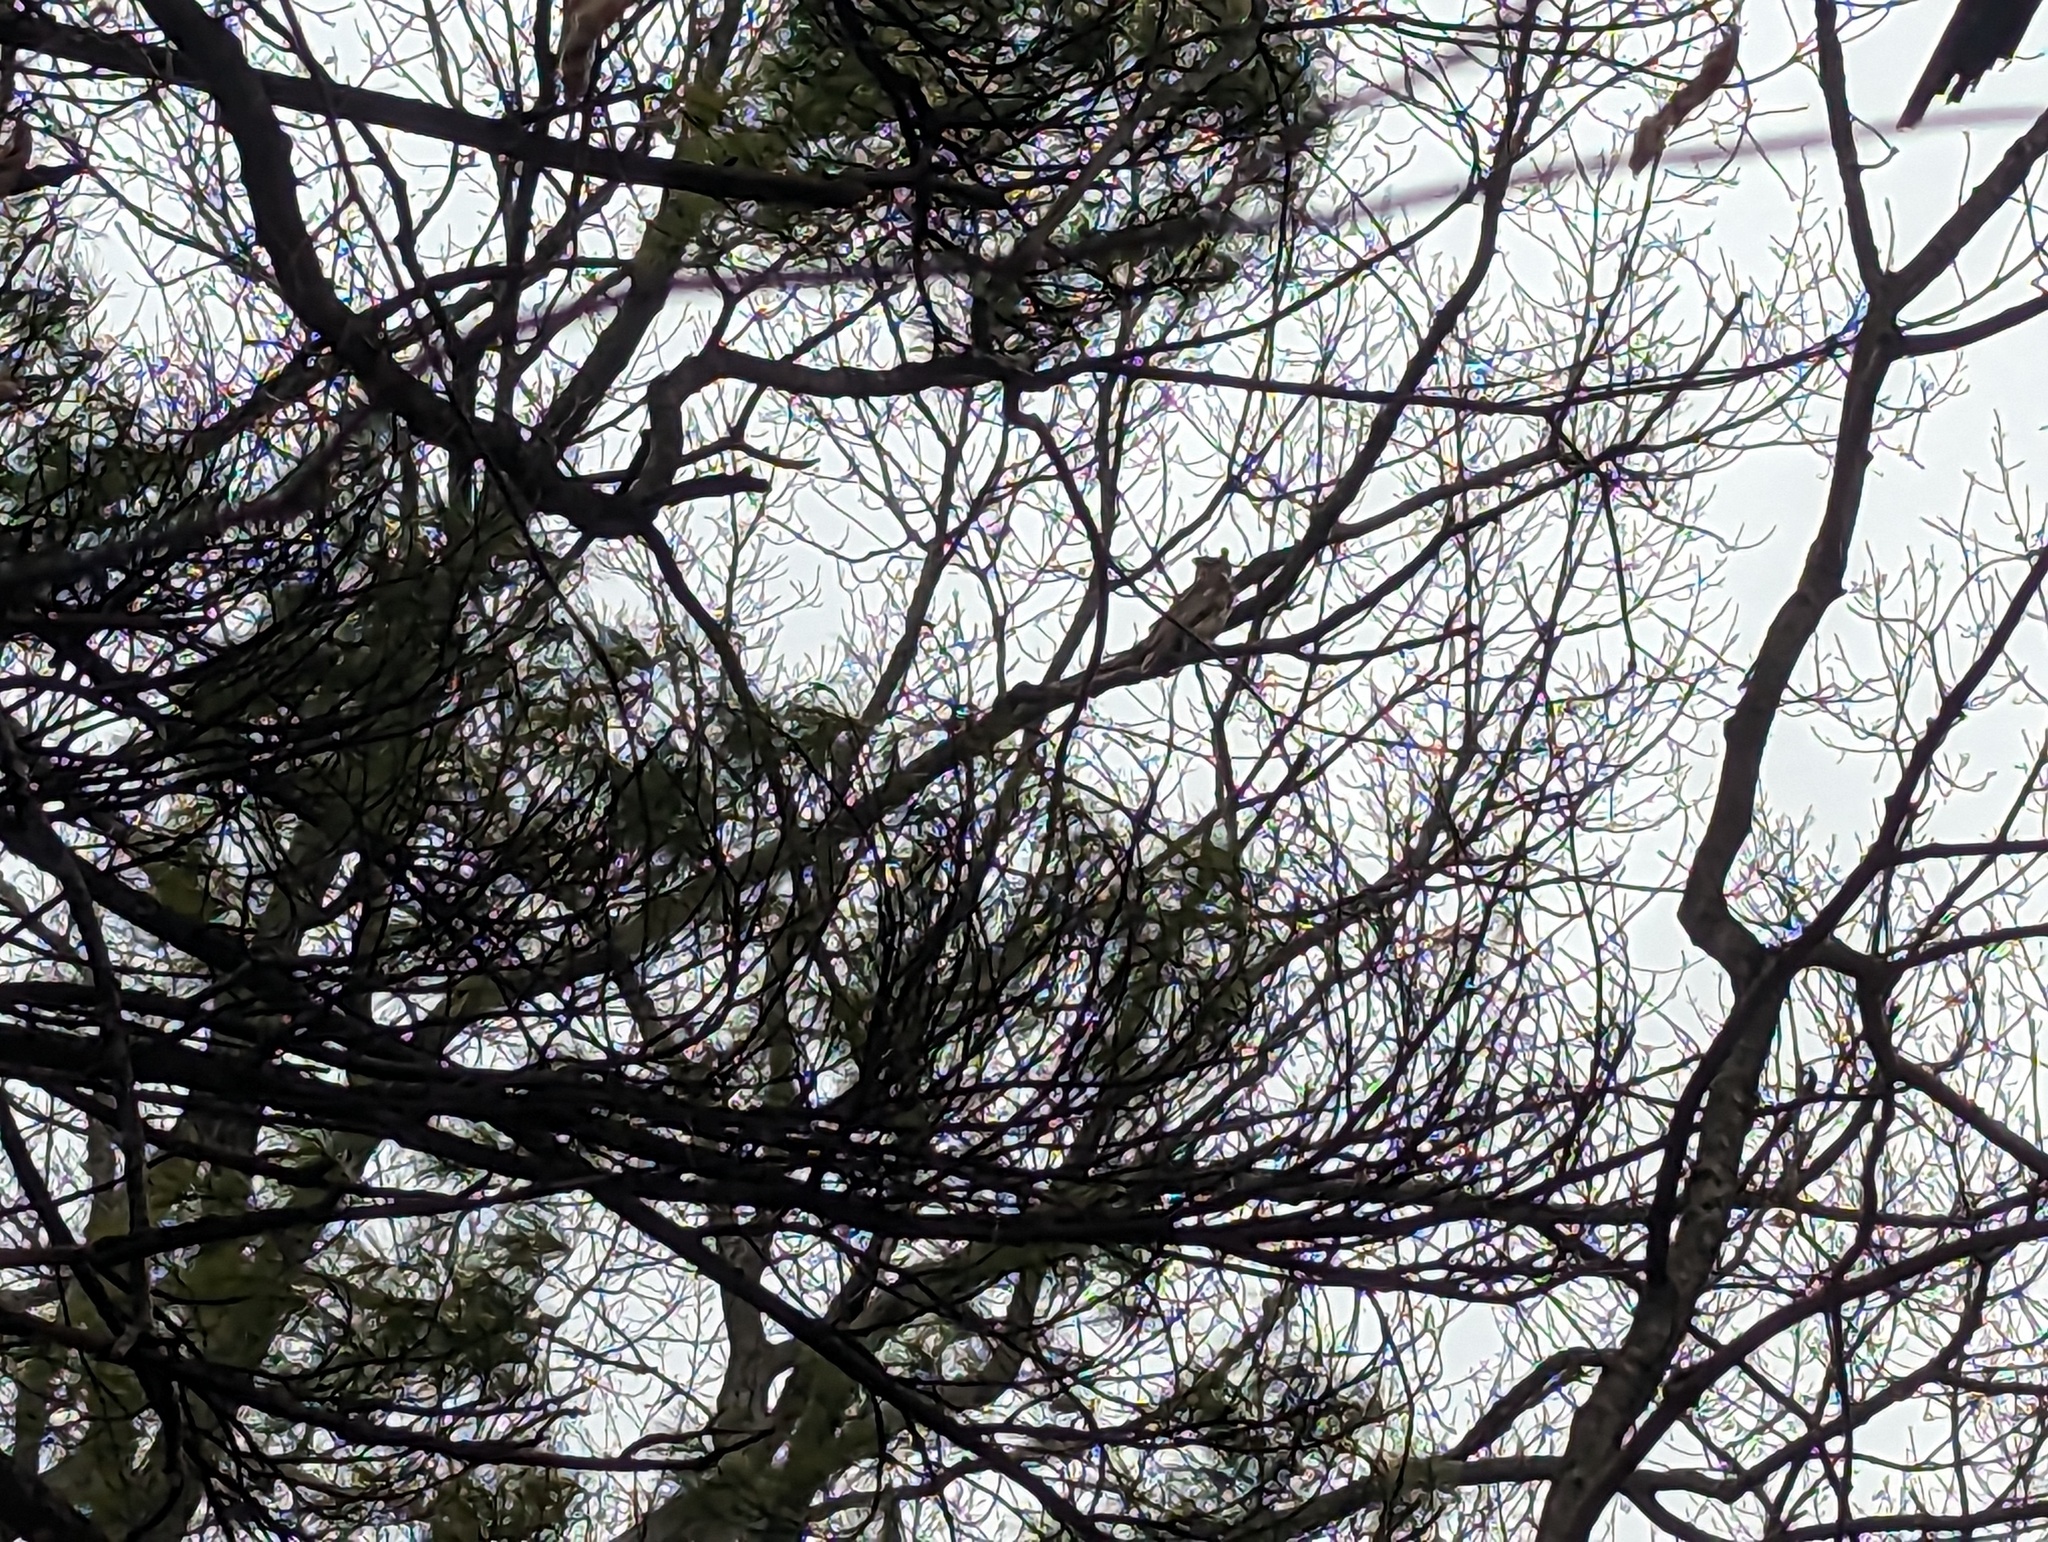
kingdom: Animalia
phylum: Chordata
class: Aves
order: Strigiformes
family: Strigidae
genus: Bubo
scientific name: Bubo virginianus
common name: Great horned owl
